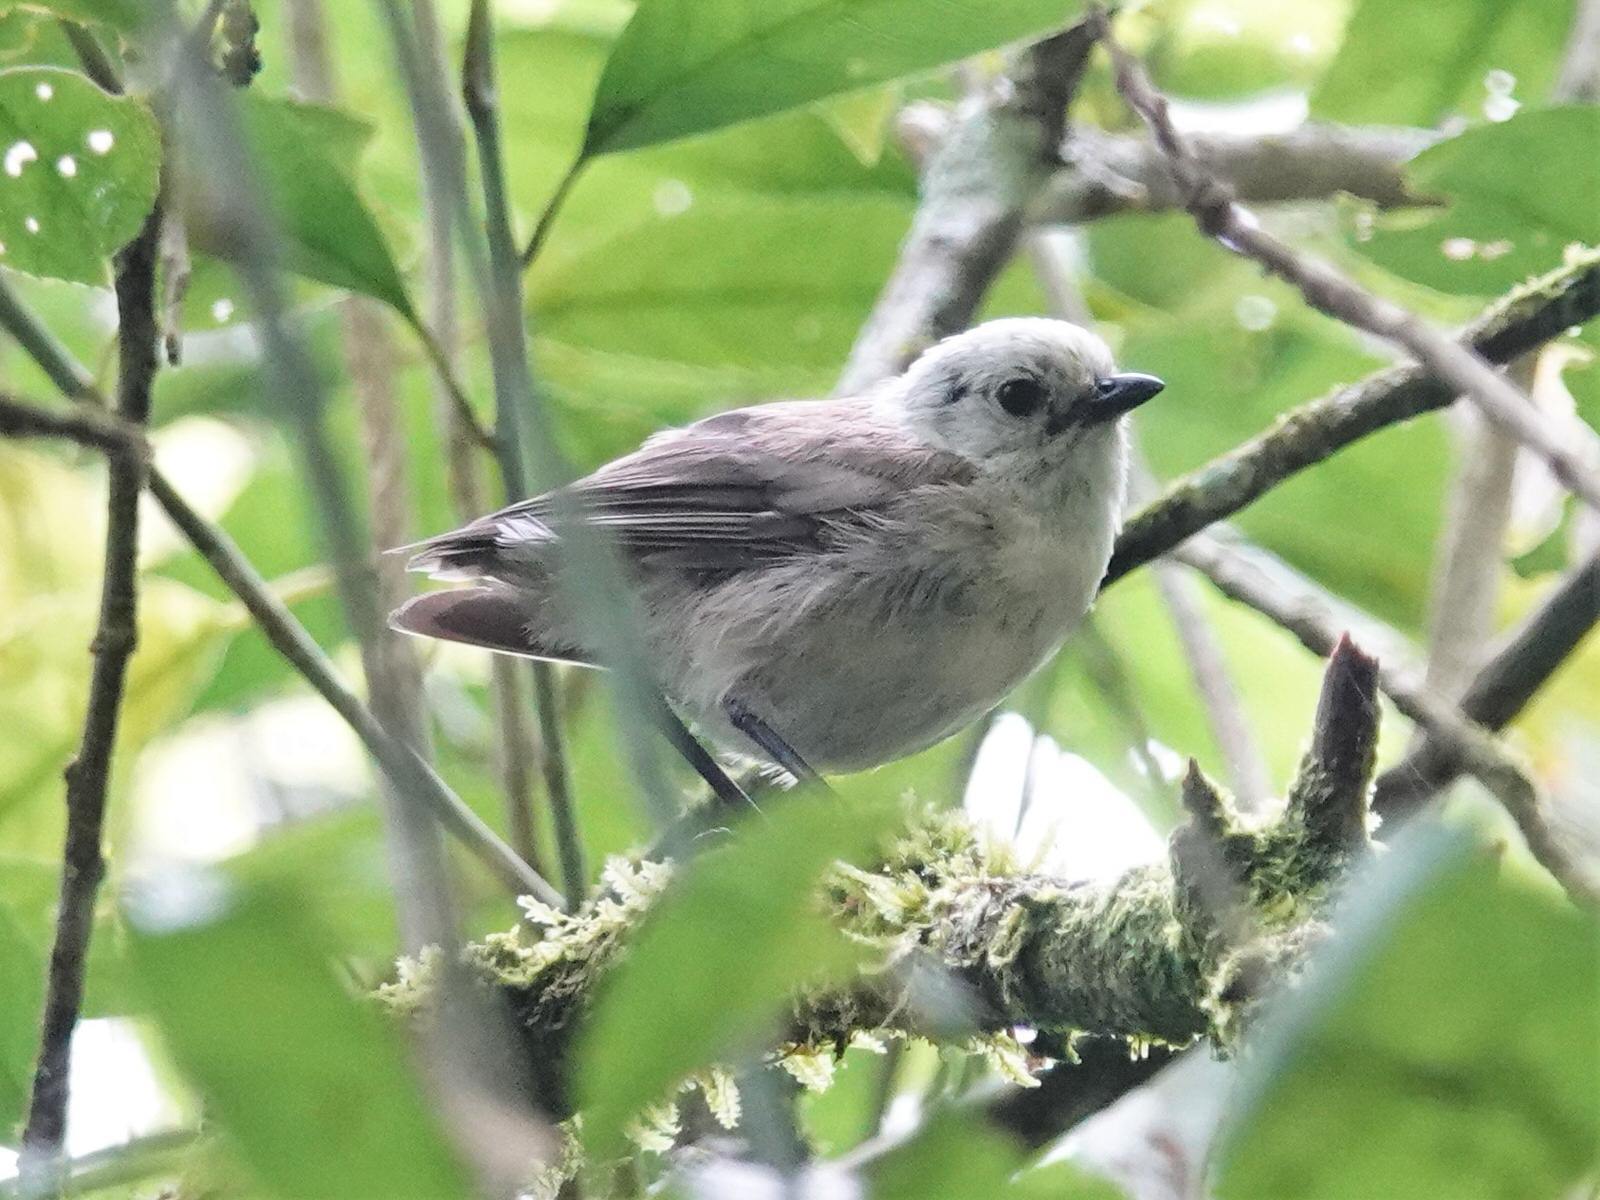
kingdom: Animalia
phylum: Chordata
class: Aves
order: Passeriformes
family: Acanthizidae
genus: Mohoua
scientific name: Mohoua albicilla
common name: Whitehead
